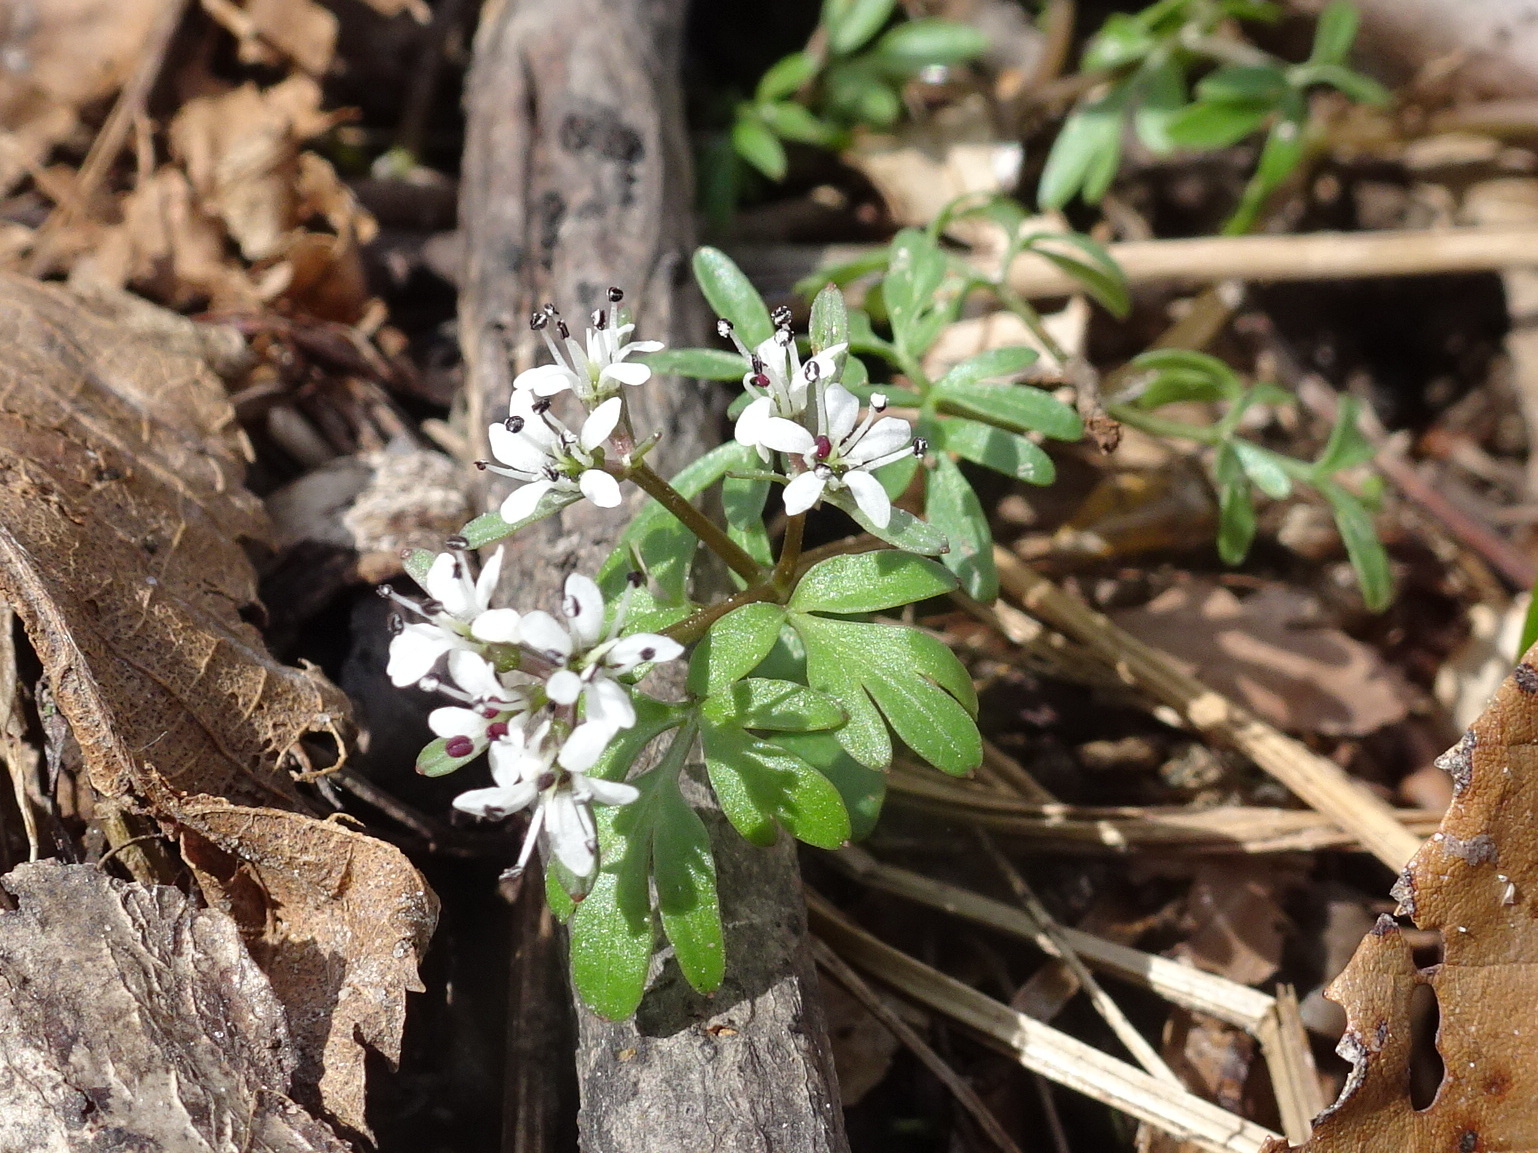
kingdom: Plantae
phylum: Tracheophyta
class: Magnoliopsida
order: Apiales
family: Apiaceae
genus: Erigenia
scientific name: Erigenia bulbosa
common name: Pepper-and-salt
